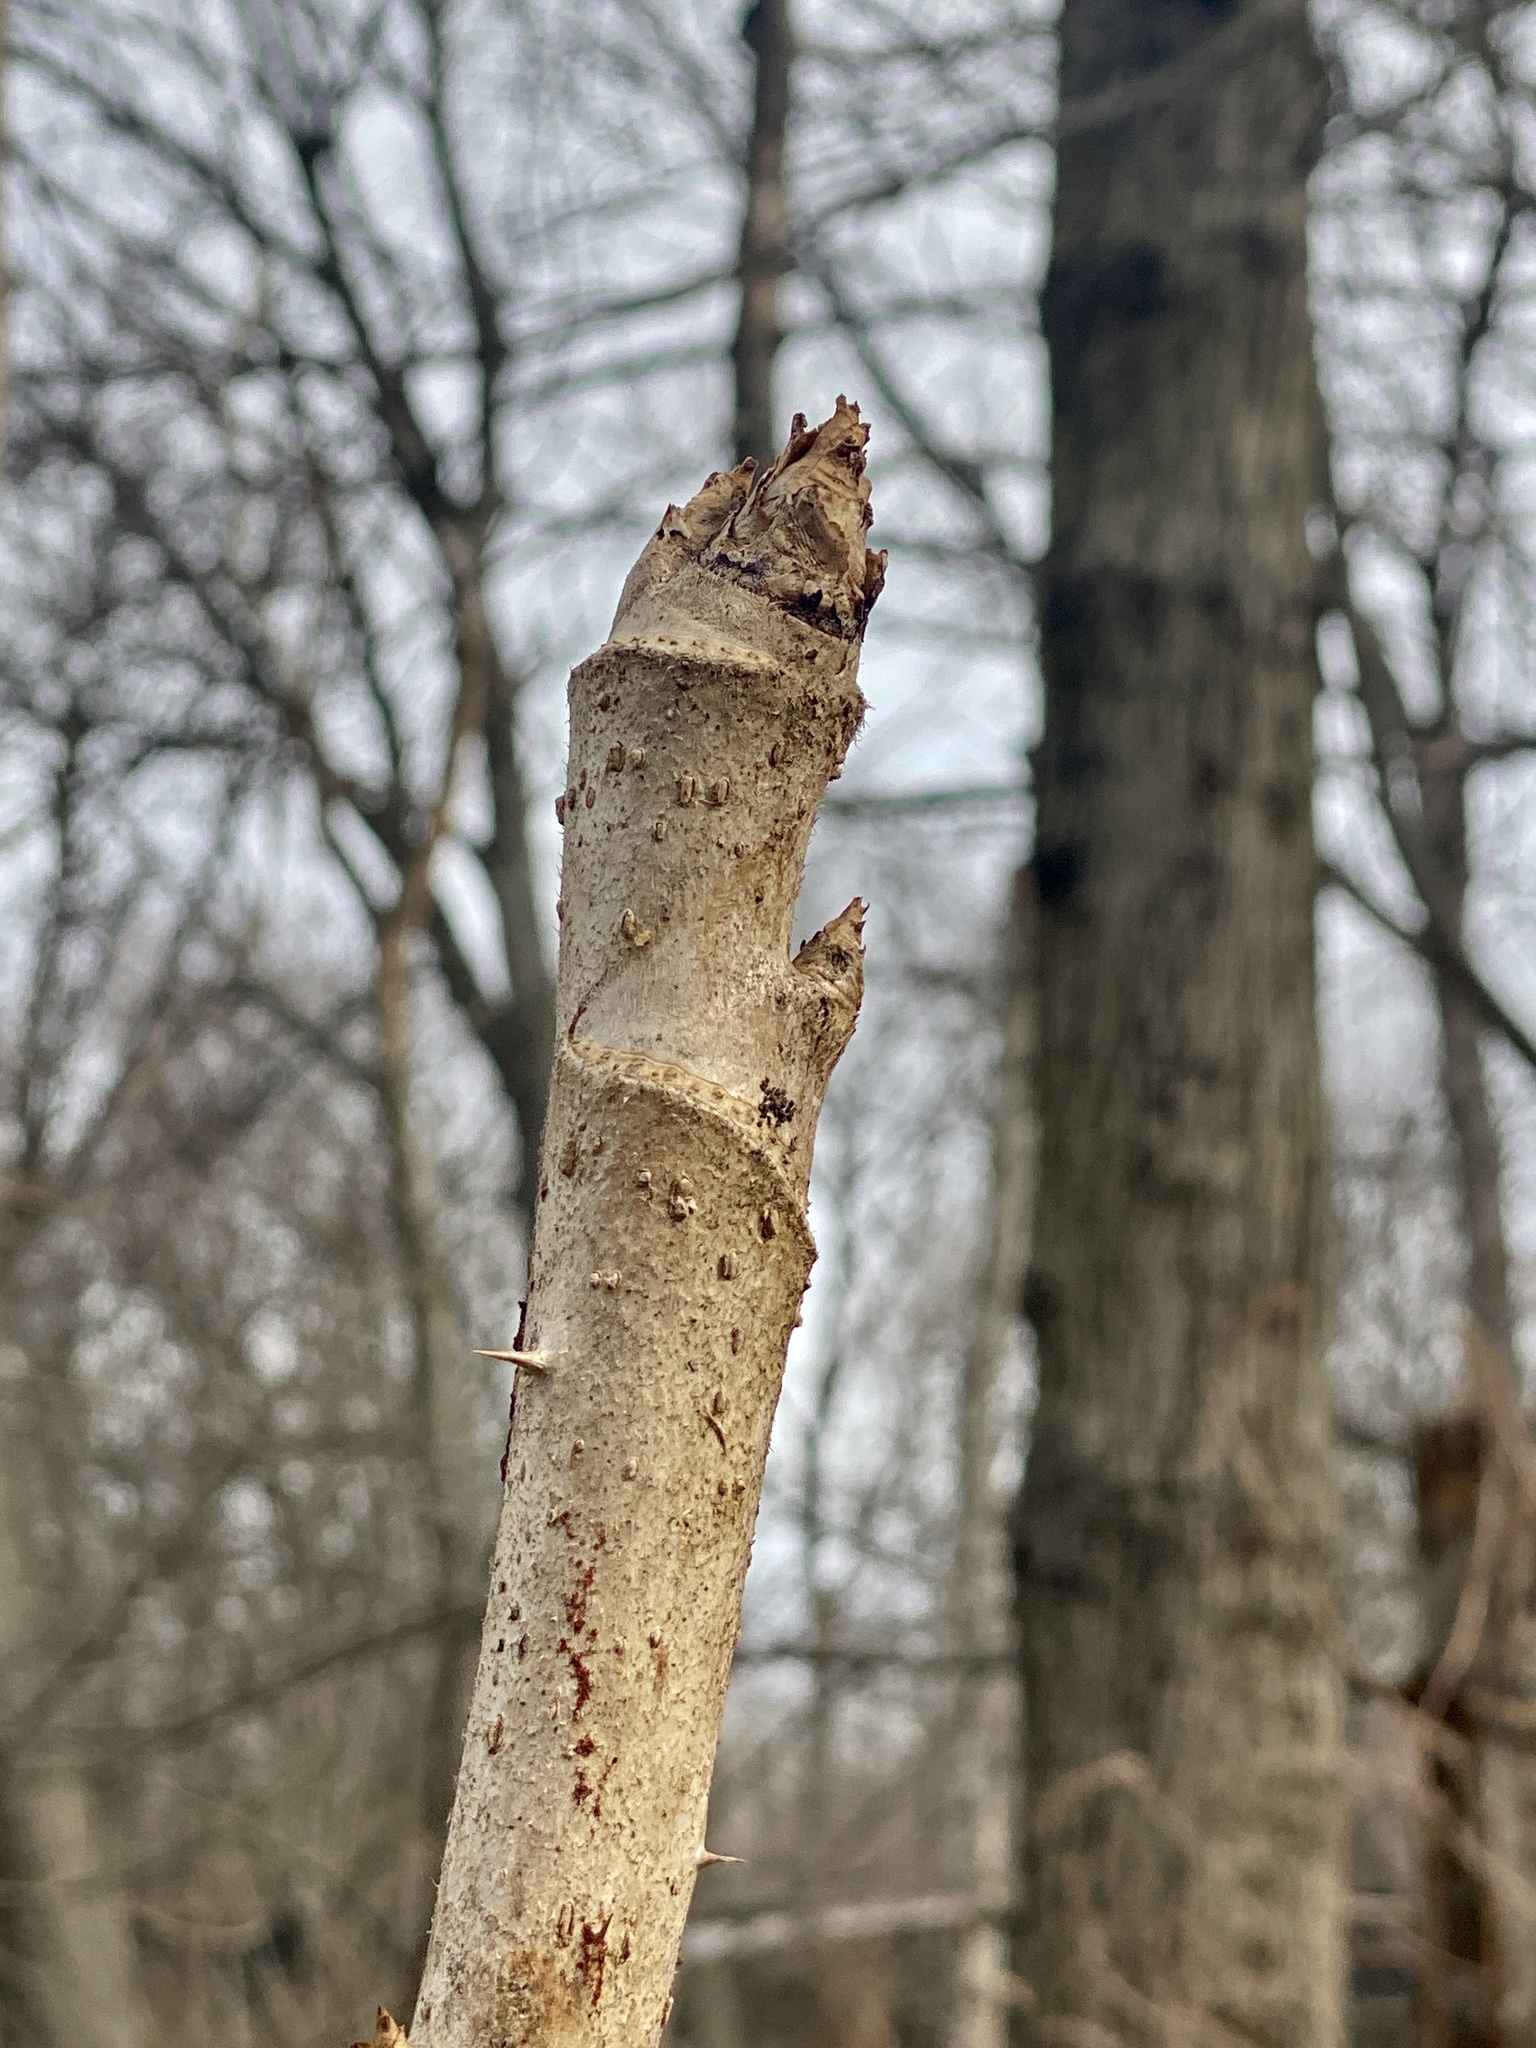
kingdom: Plantae
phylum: Tracheophyta
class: Magnoliopsida
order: Apiales
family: Araliaceae
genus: Aralia
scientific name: Aralia elata
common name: Japanese angelica-tree
